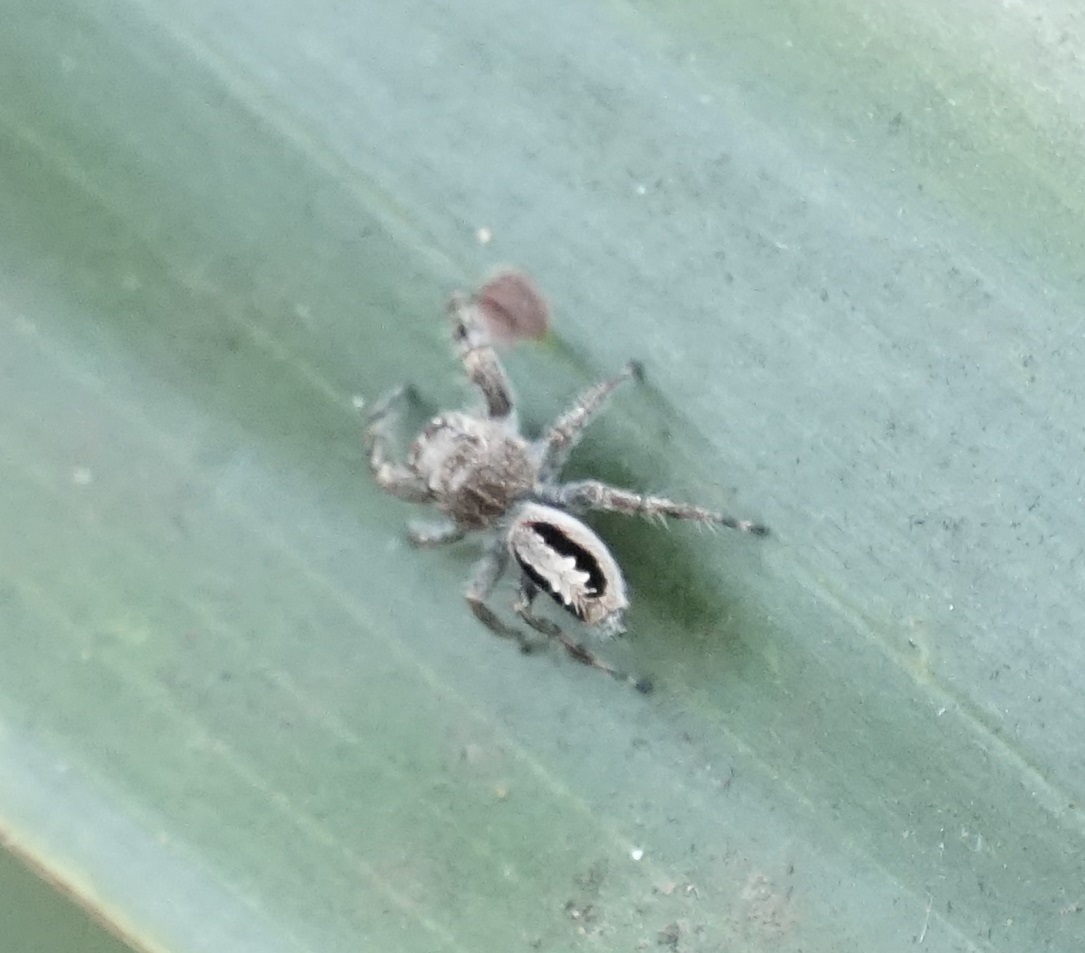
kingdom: Animalia
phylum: Arthropoda
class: Arachnida
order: Araneae
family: Salticidae
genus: Sandalodes
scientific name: Sandalodes superbus
